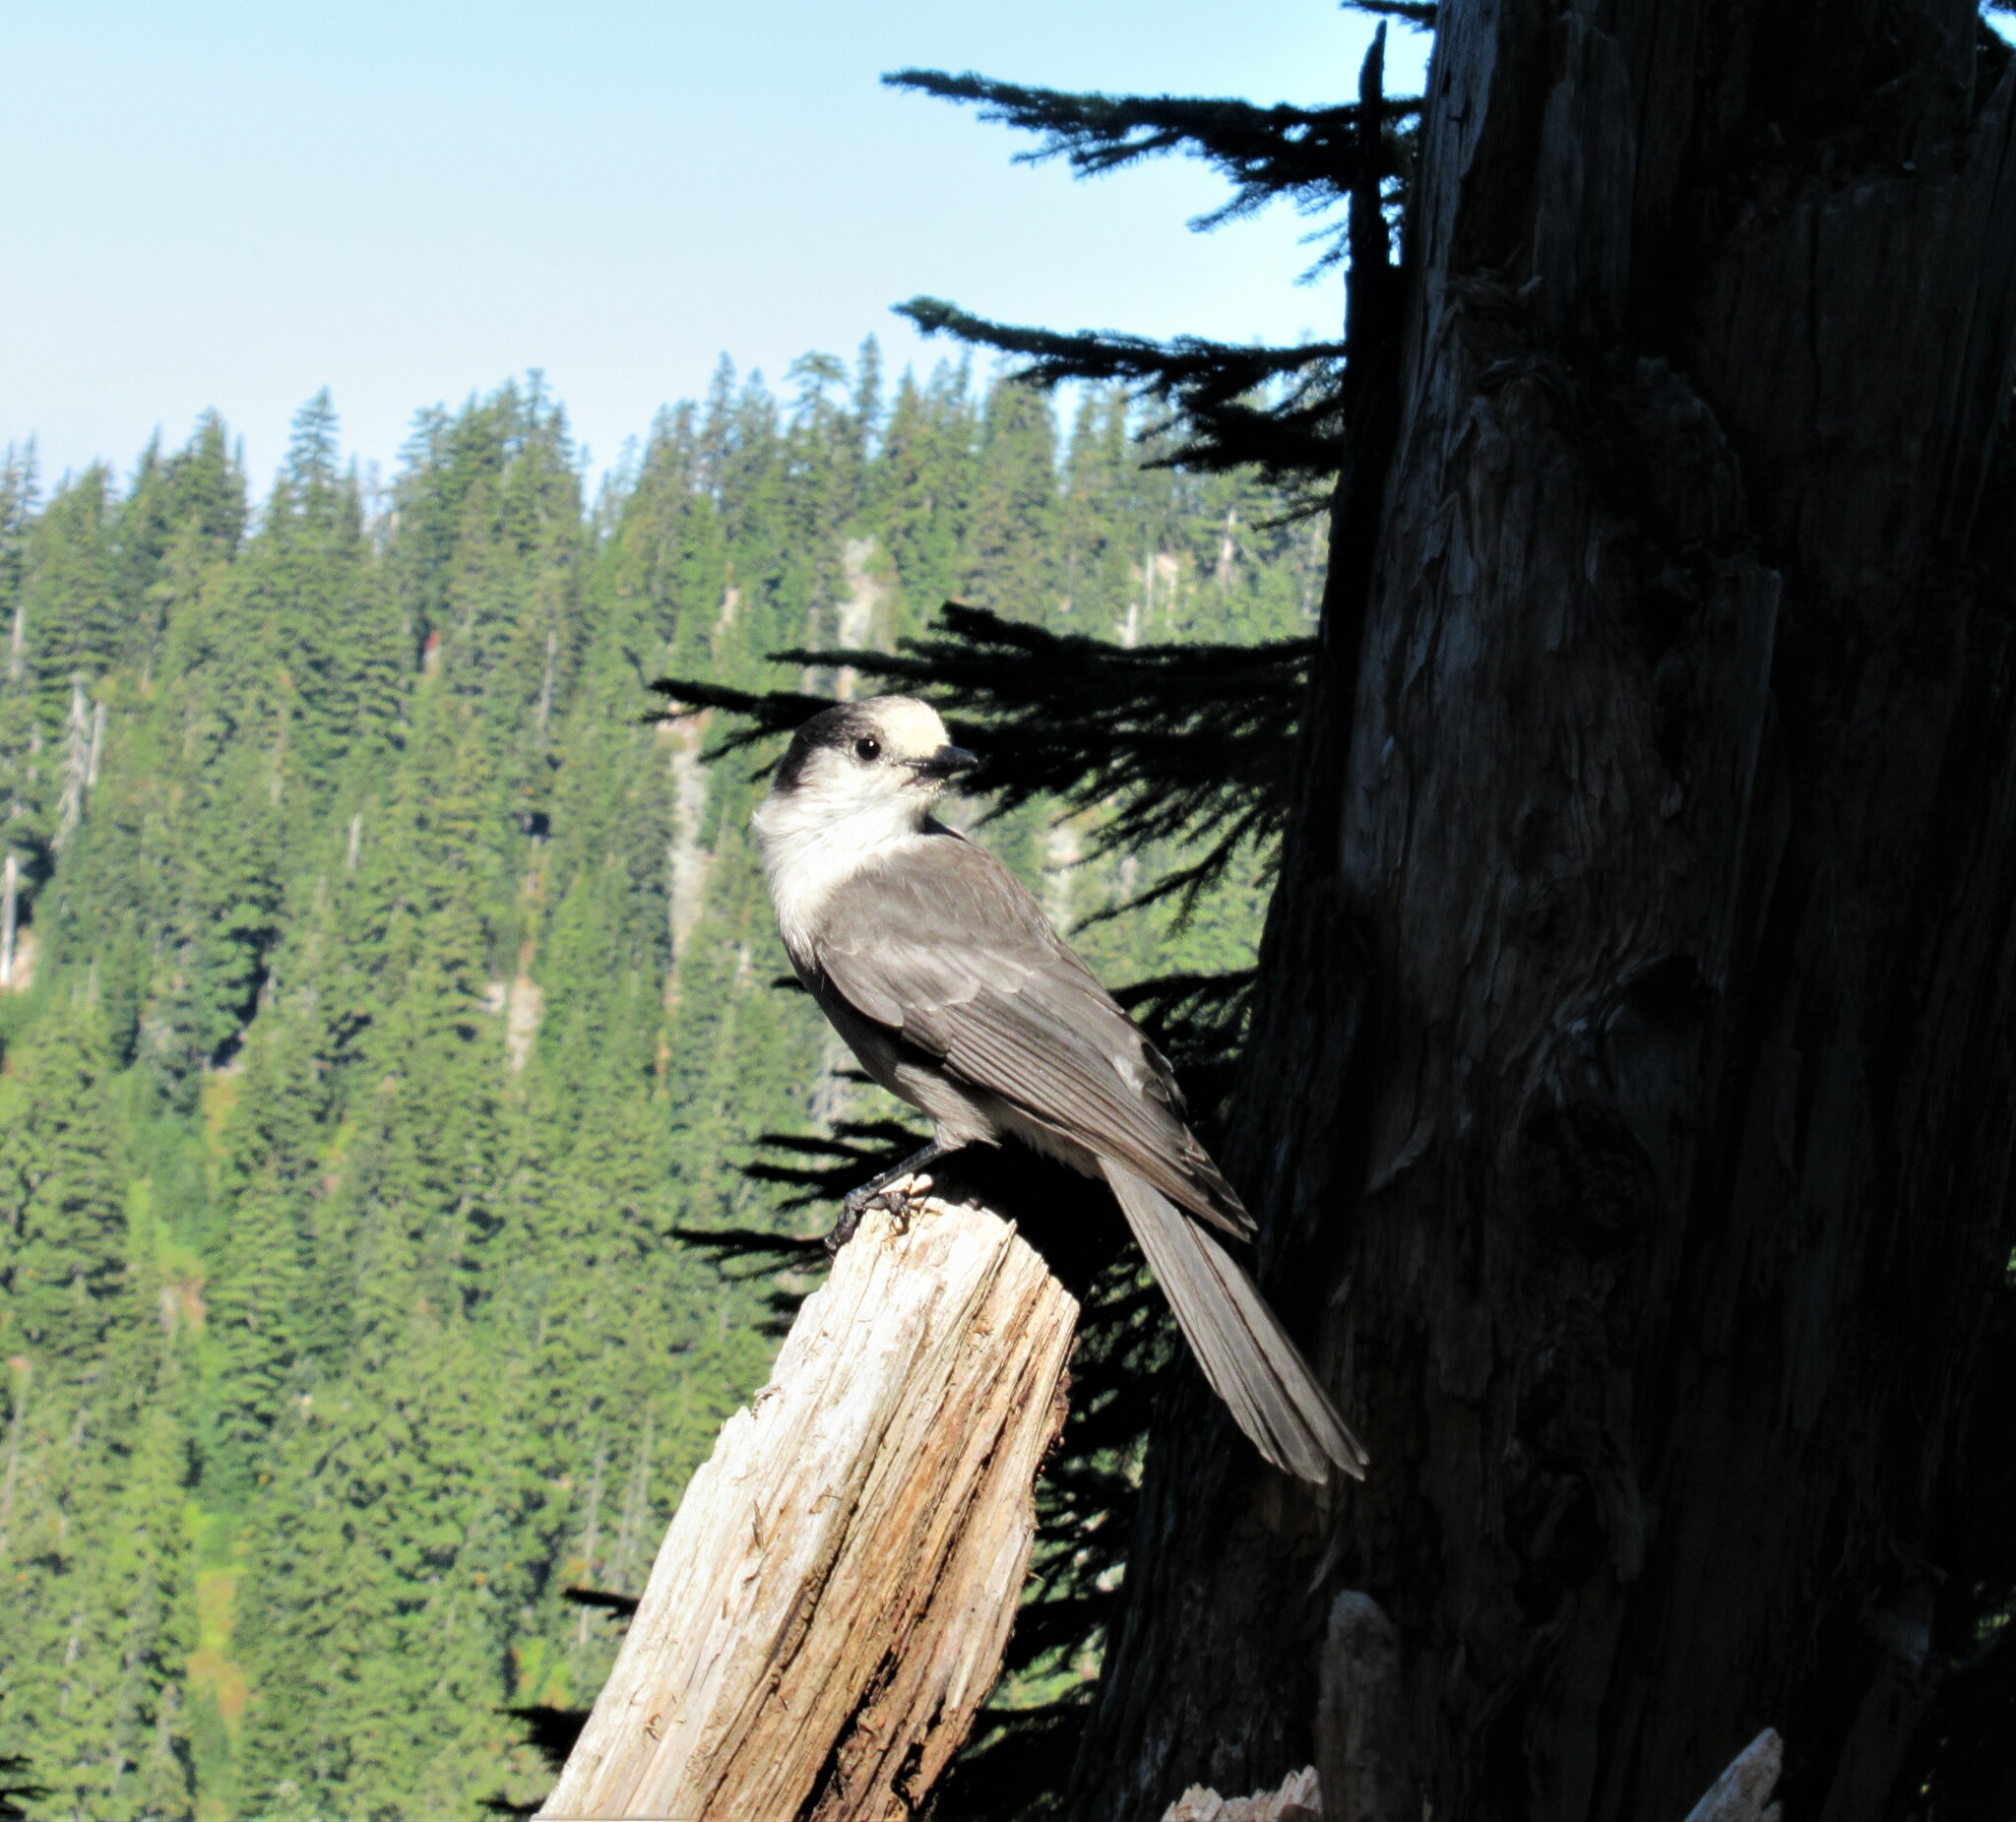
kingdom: Animalia
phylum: Chordata
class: Aves
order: Passeriformes
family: Corvidae
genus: Perisoreus
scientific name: Perisoreus canadensis
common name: Gray jay
